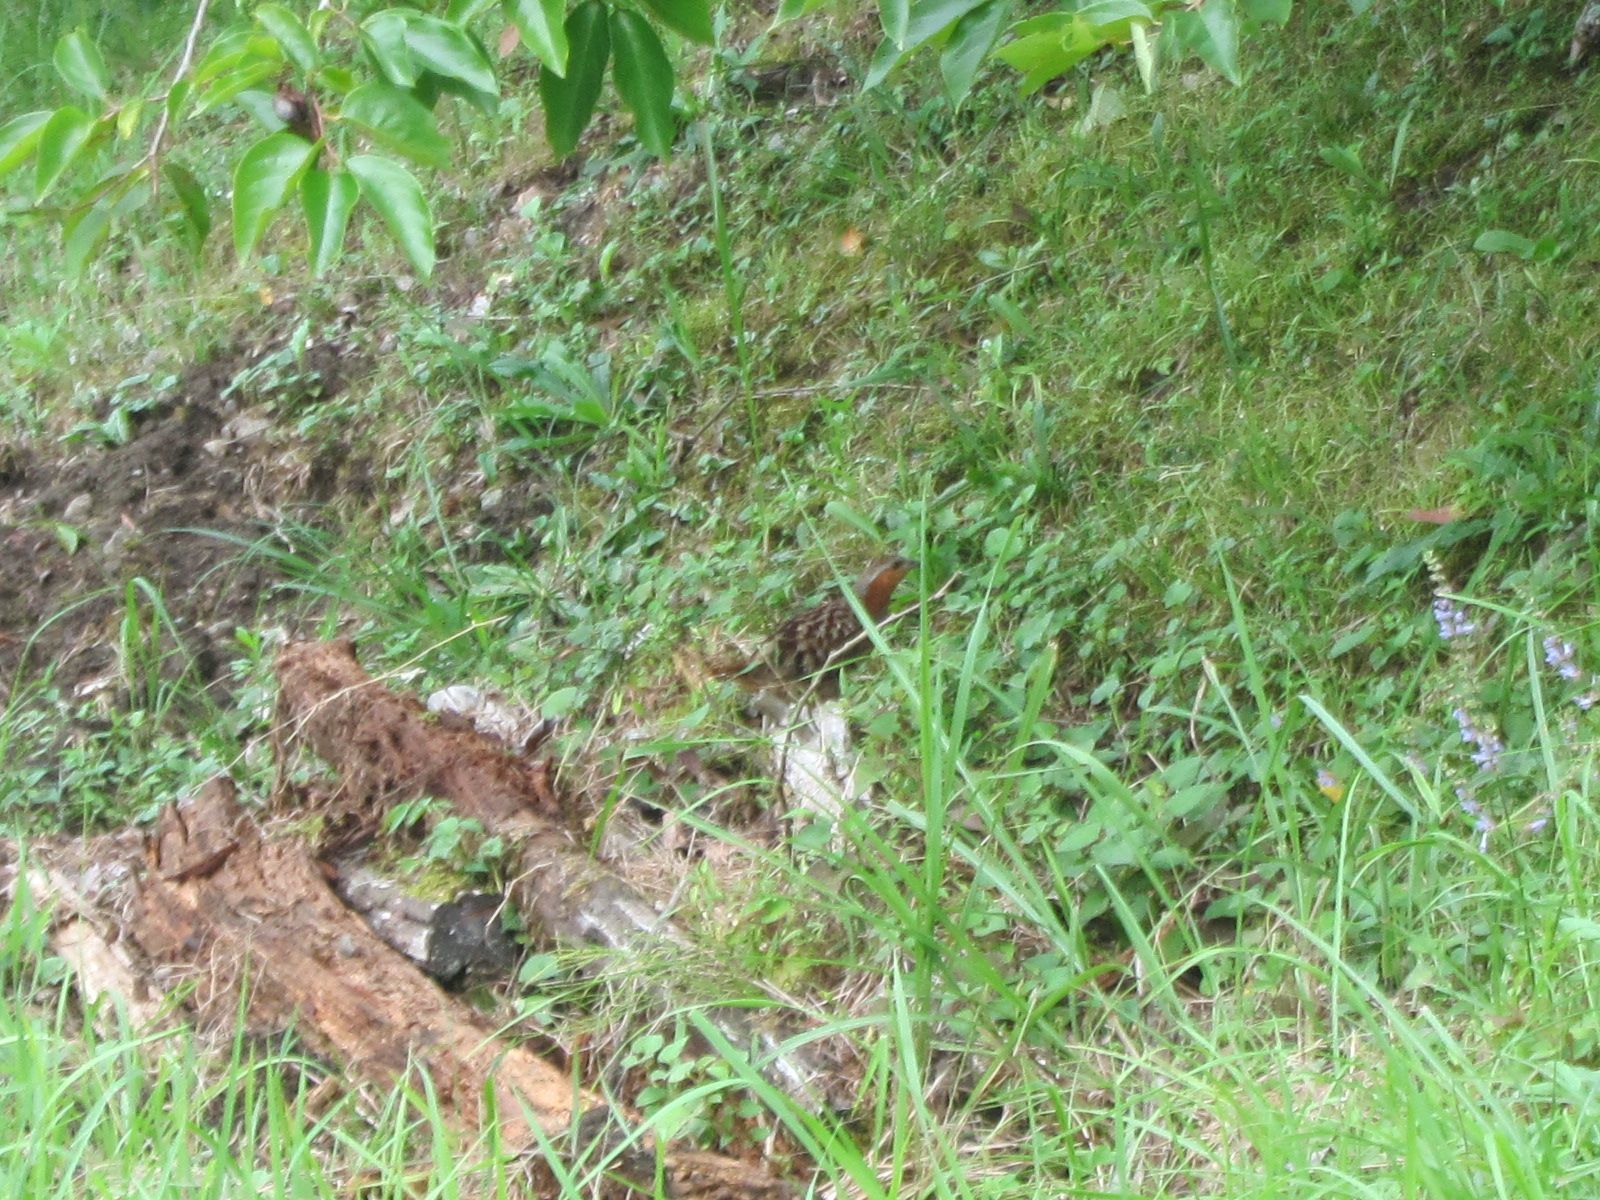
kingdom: Animalia
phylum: Chordata
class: Aves
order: Galliformes
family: Phasianidae
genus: Bambusicola
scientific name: Bambusicola thoracicus
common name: Chinese bamboo partridge
